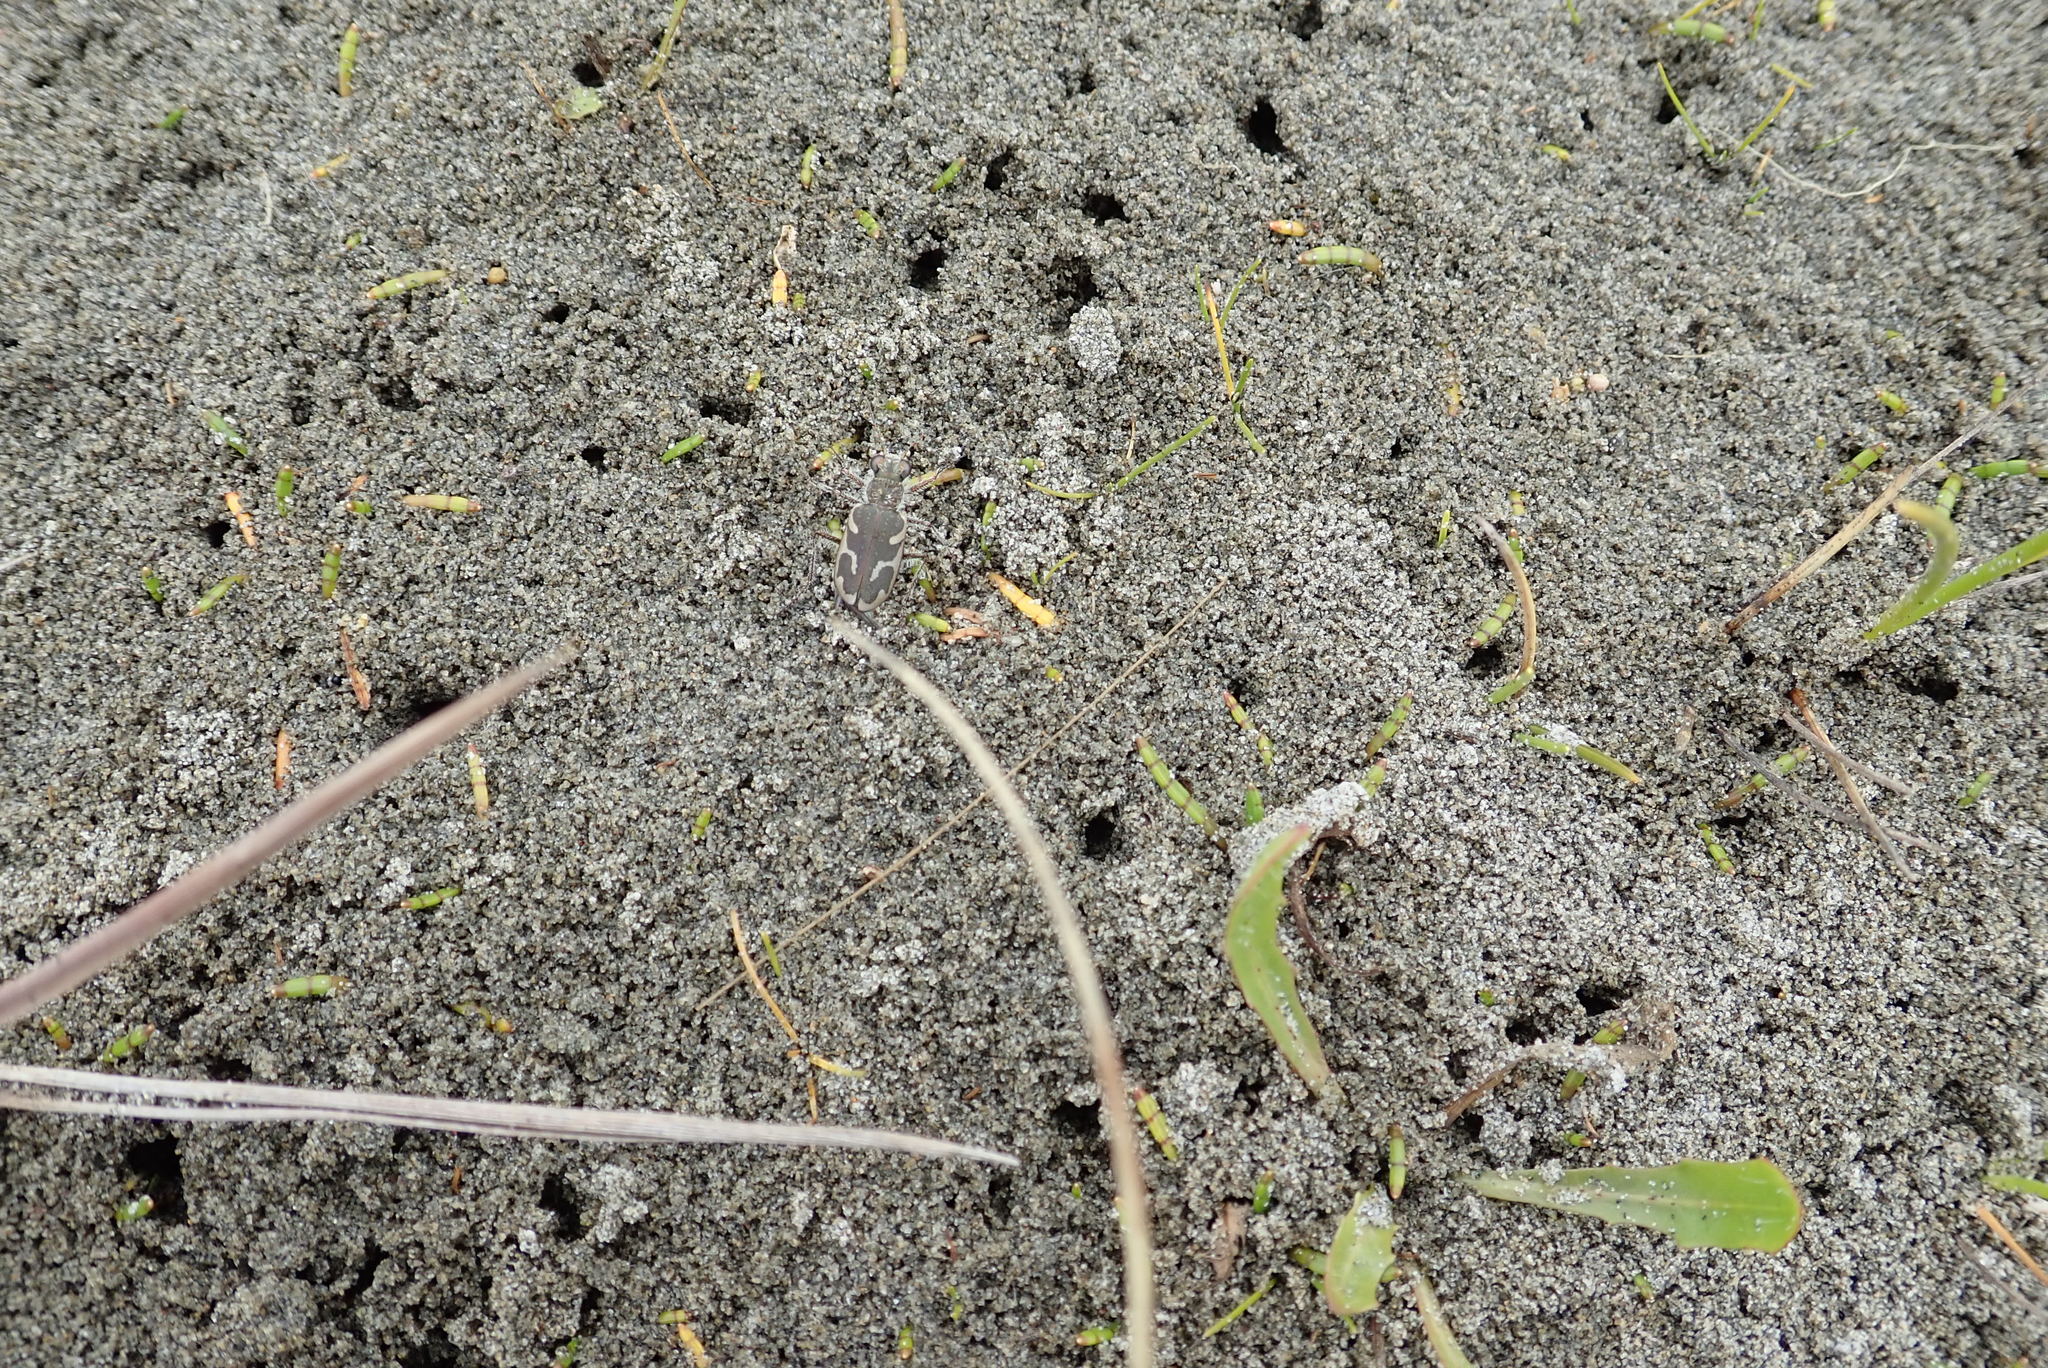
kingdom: Animalia
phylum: Arthropoda
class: Insecta
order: Coleoptera
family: Carabidae
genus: Zecicindela
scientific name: Zecicindela feredayi
